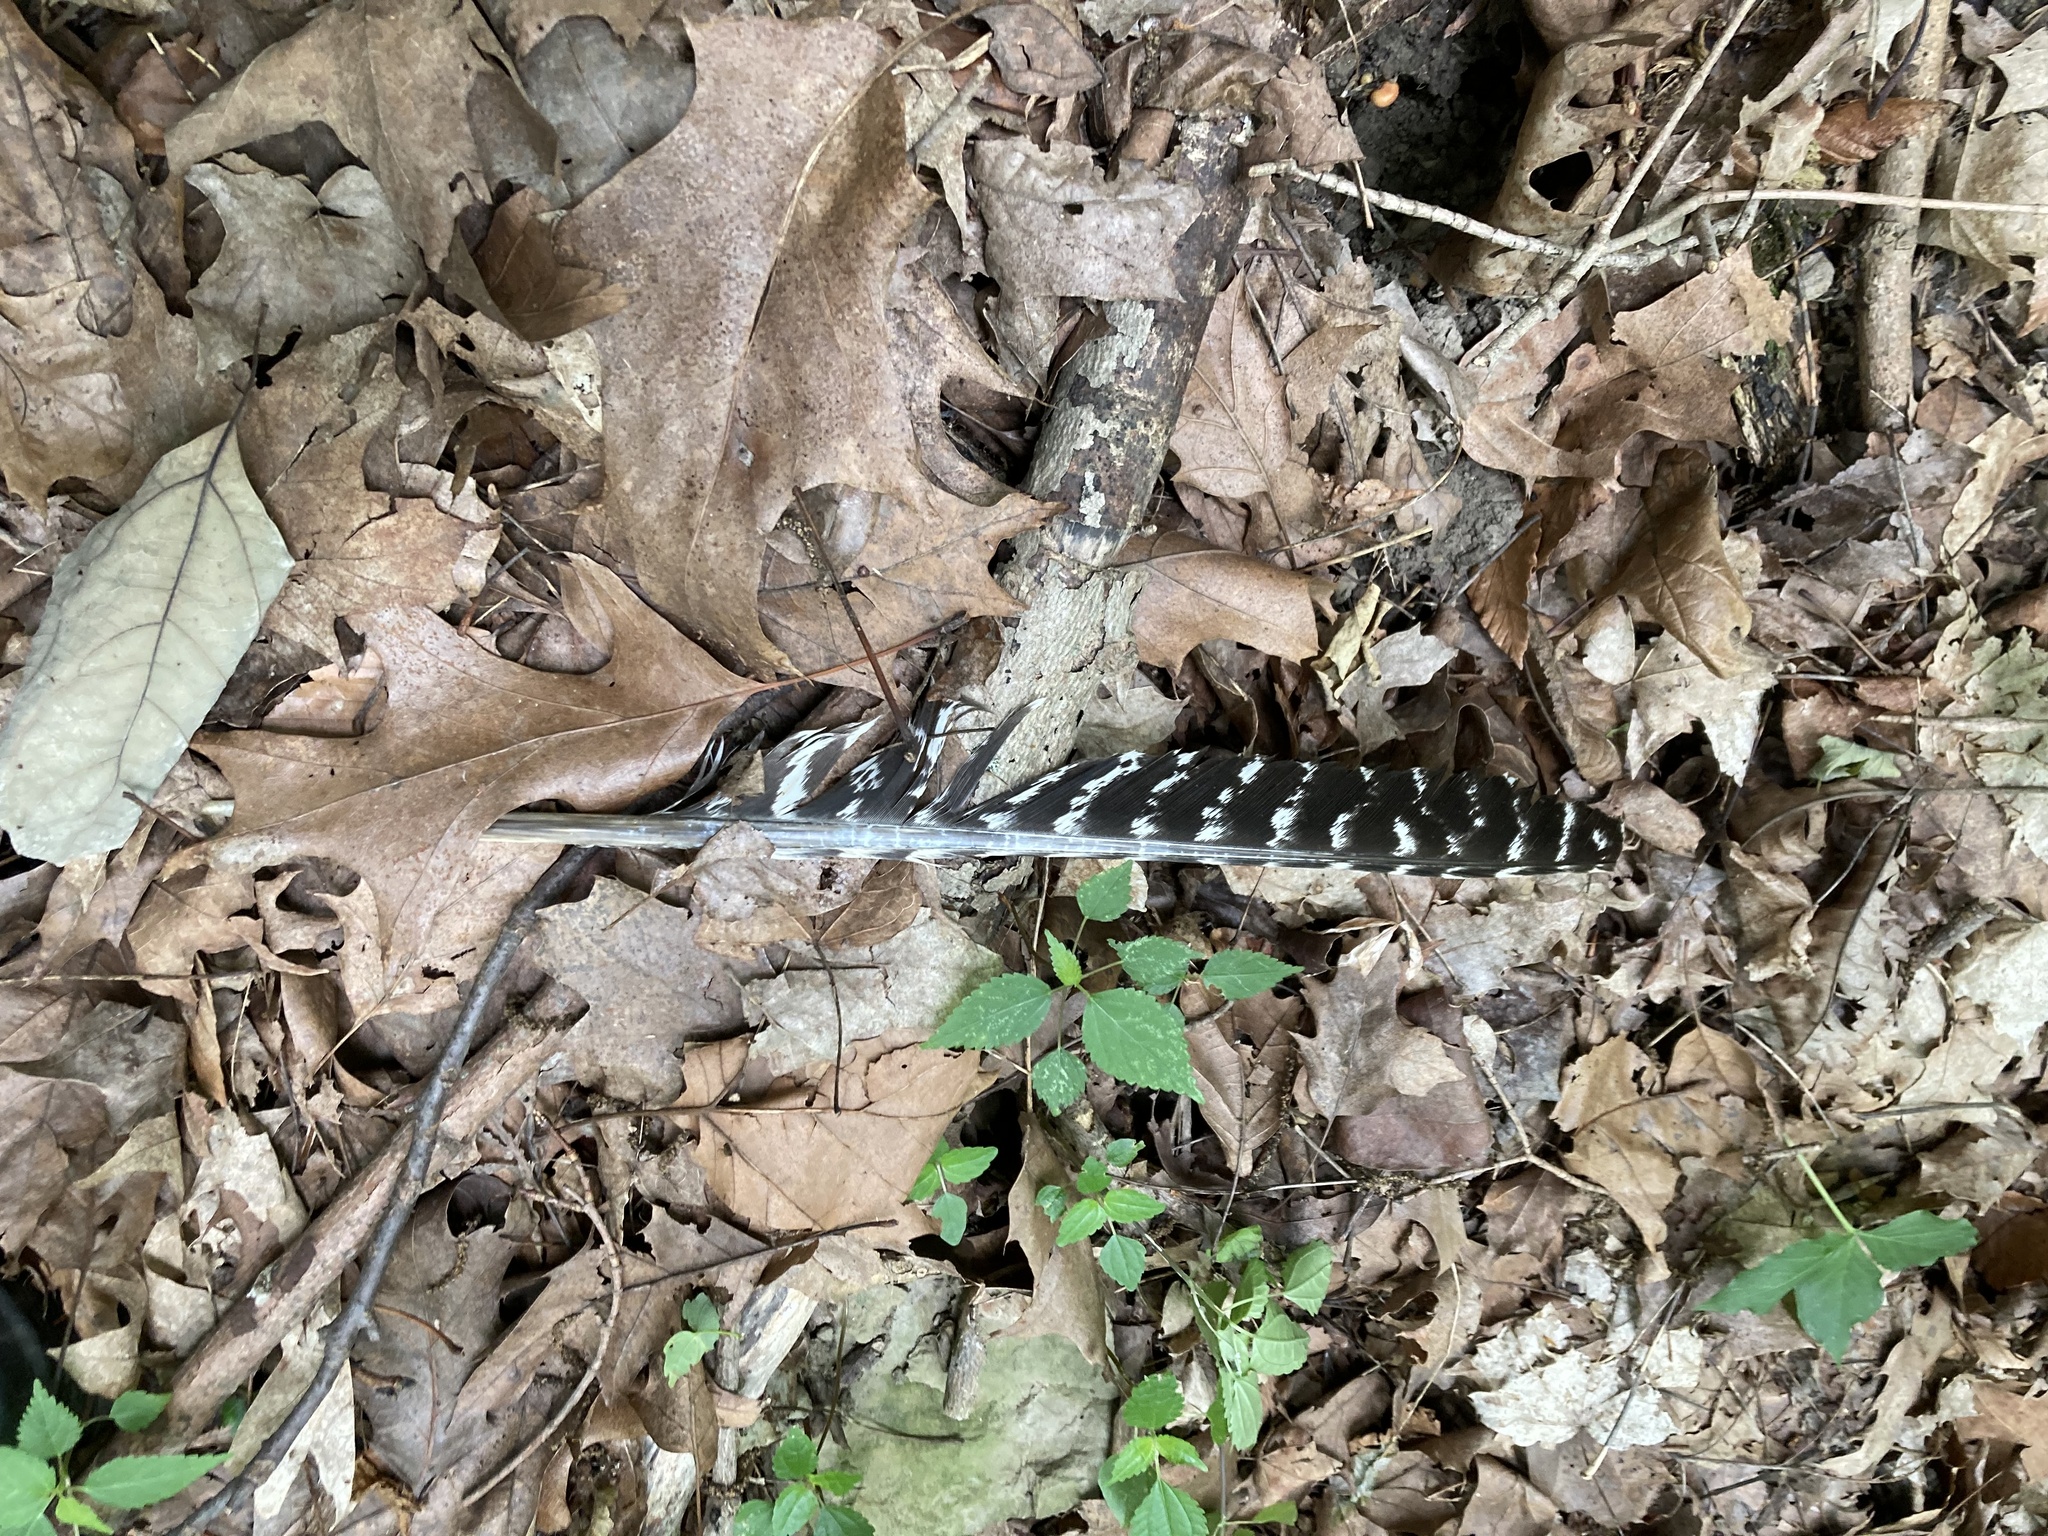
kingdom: Animalia
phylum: Chordata
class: Aves
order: Galliformes
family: Phasianidae
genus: Meleagris
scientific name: Meleagris gallopavo
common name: Wild turkey
